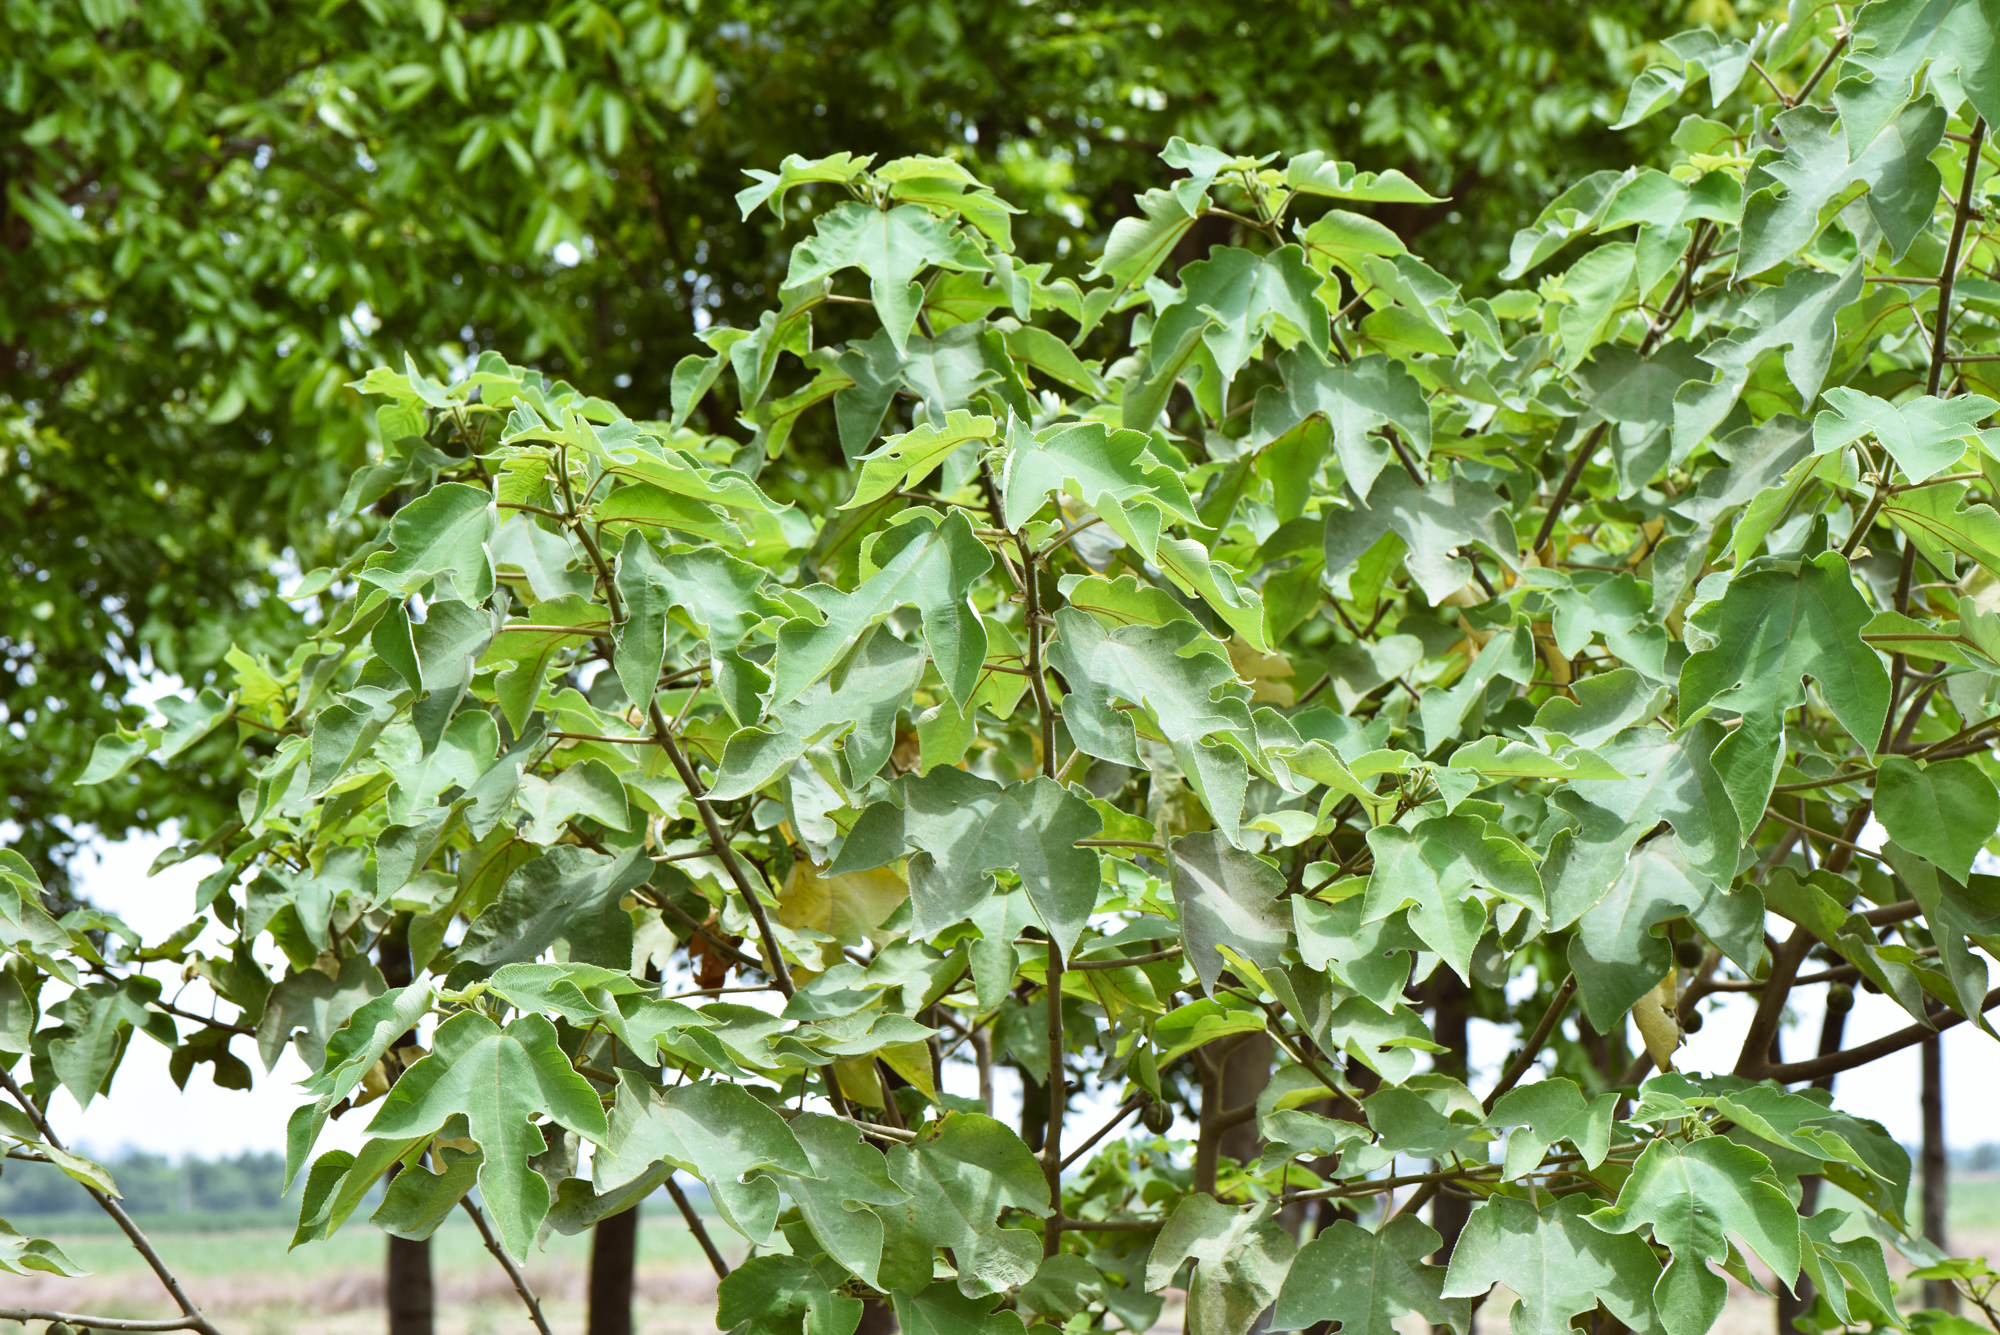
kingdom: Plantae
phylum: Tracheophyta
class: Magnoliopsida
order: Rosales
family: Moraceae
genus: Broussonetia
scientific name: Broussonetia papyrifera
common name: Paper mulberry
